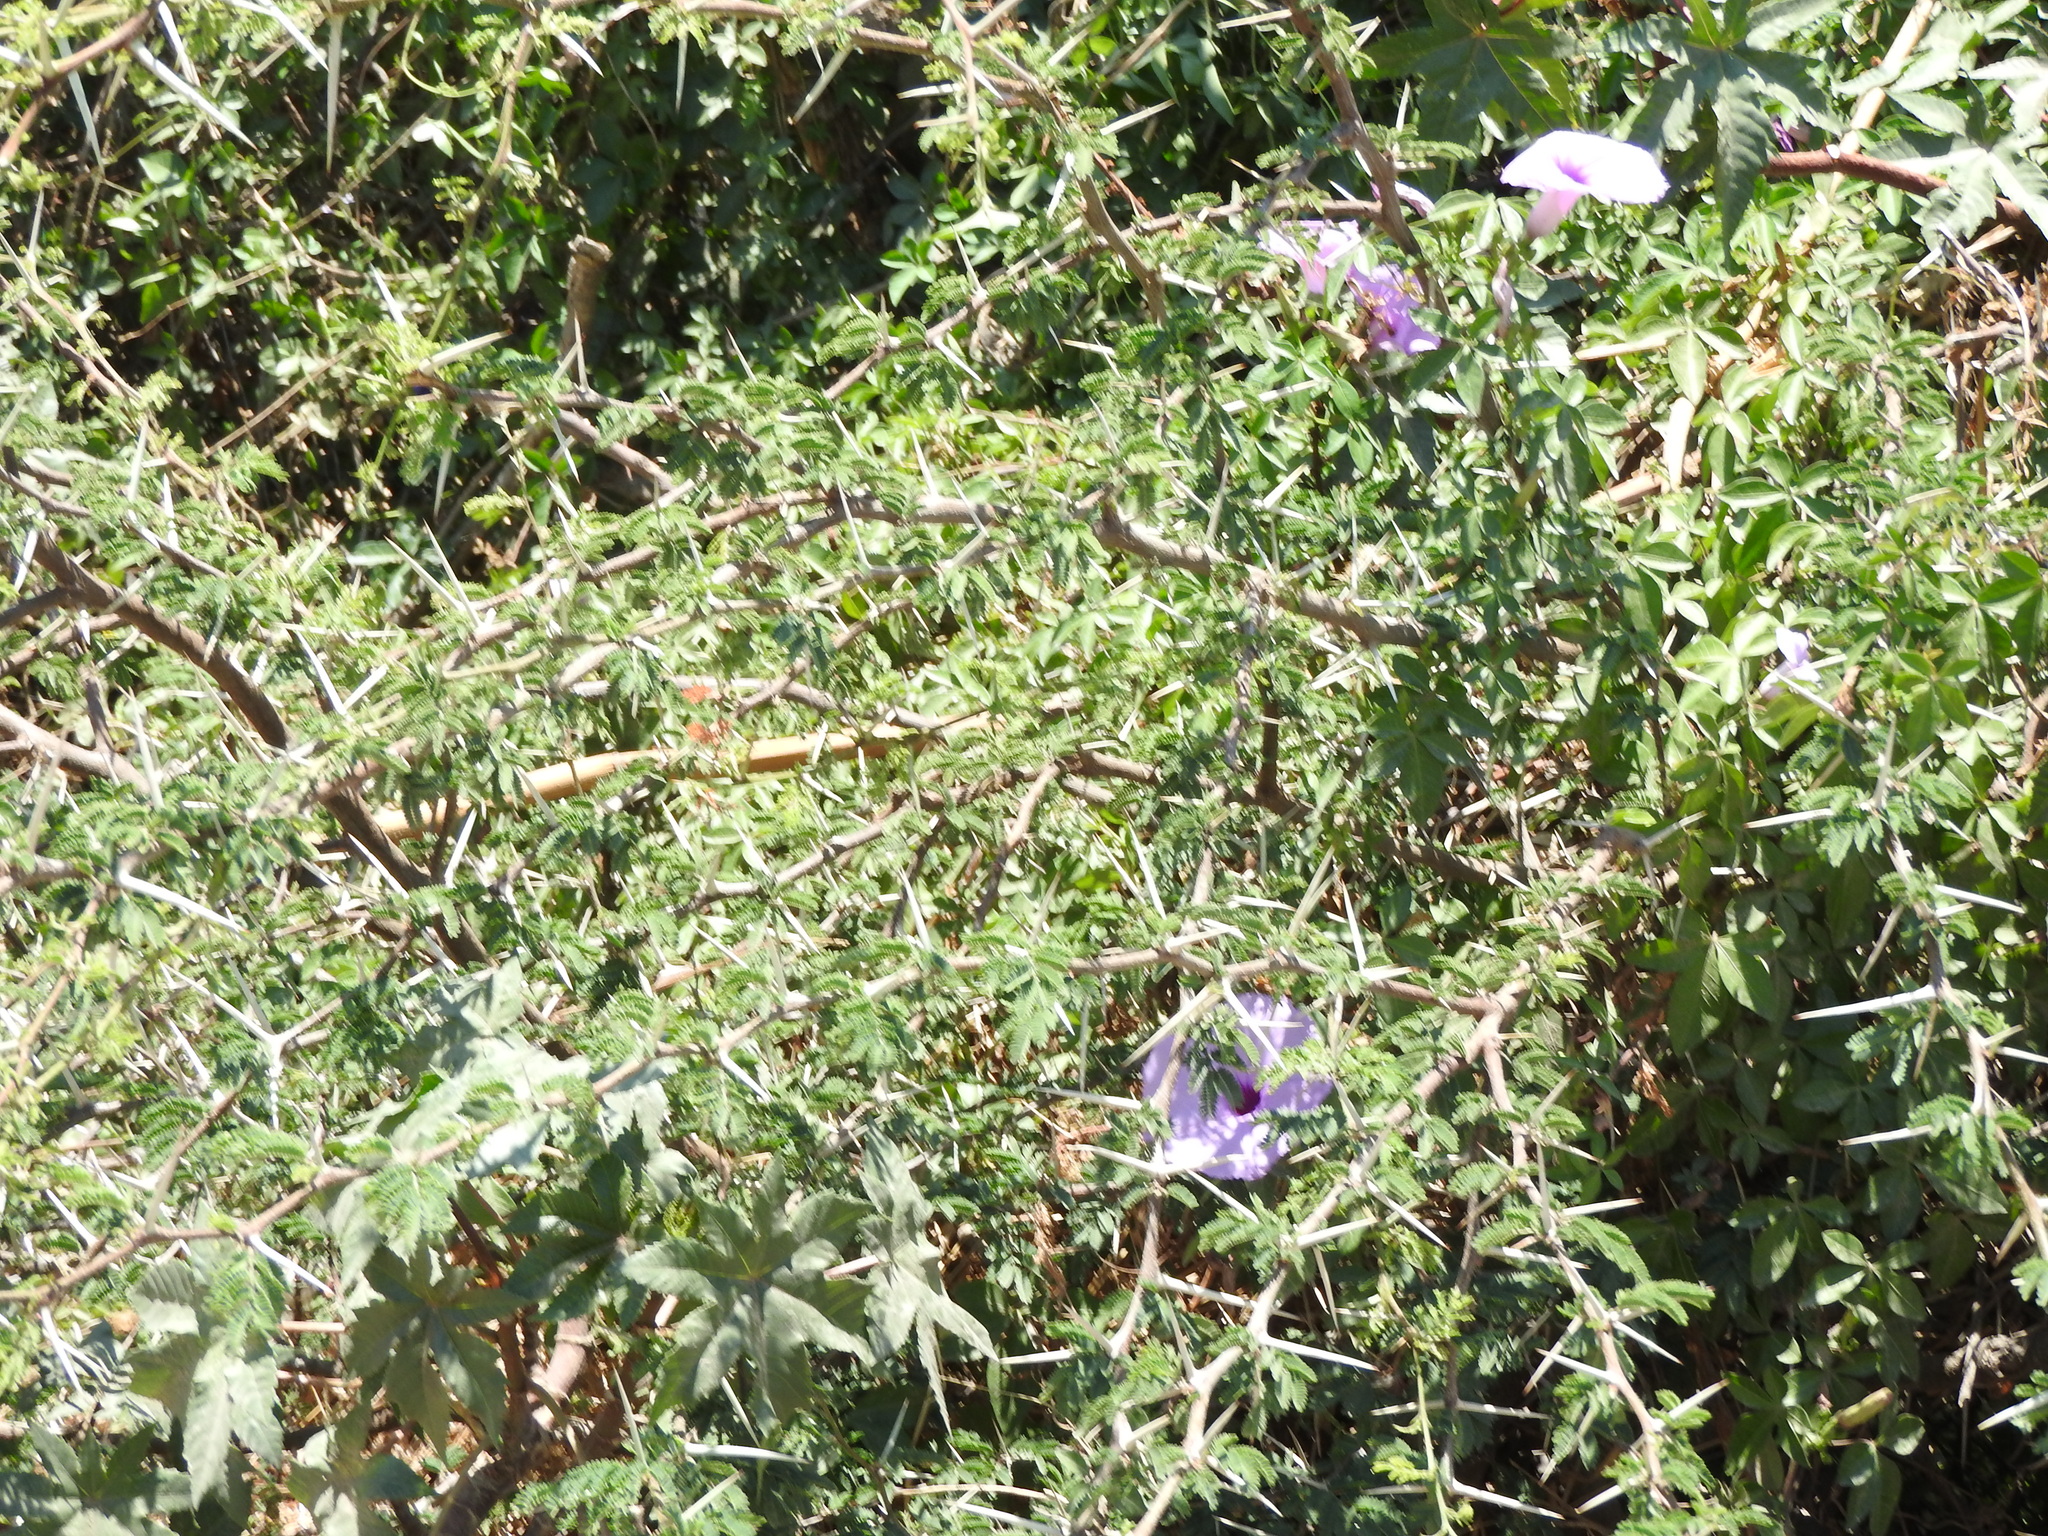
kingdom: Plantae
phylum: Tracheophyta
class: Magnoliopsida
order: Fabales
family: Fabaceae
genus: Vachellia
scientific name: Vachellia farnesiana
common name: Sweet acacia
